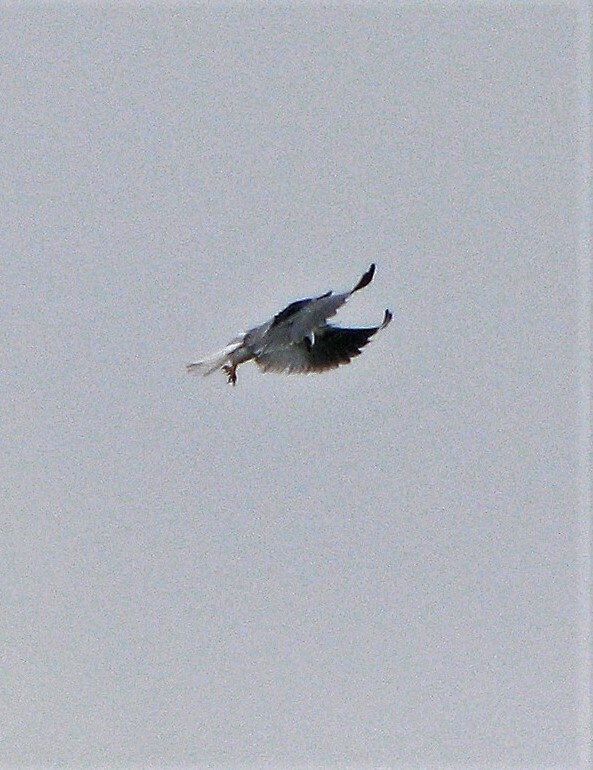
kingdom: Animalia
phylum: Chordata
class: Aves
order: Accipitriformes
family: Accipitridae
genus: Elanus
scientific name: Elanus leucurus
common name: White-tailed kite
